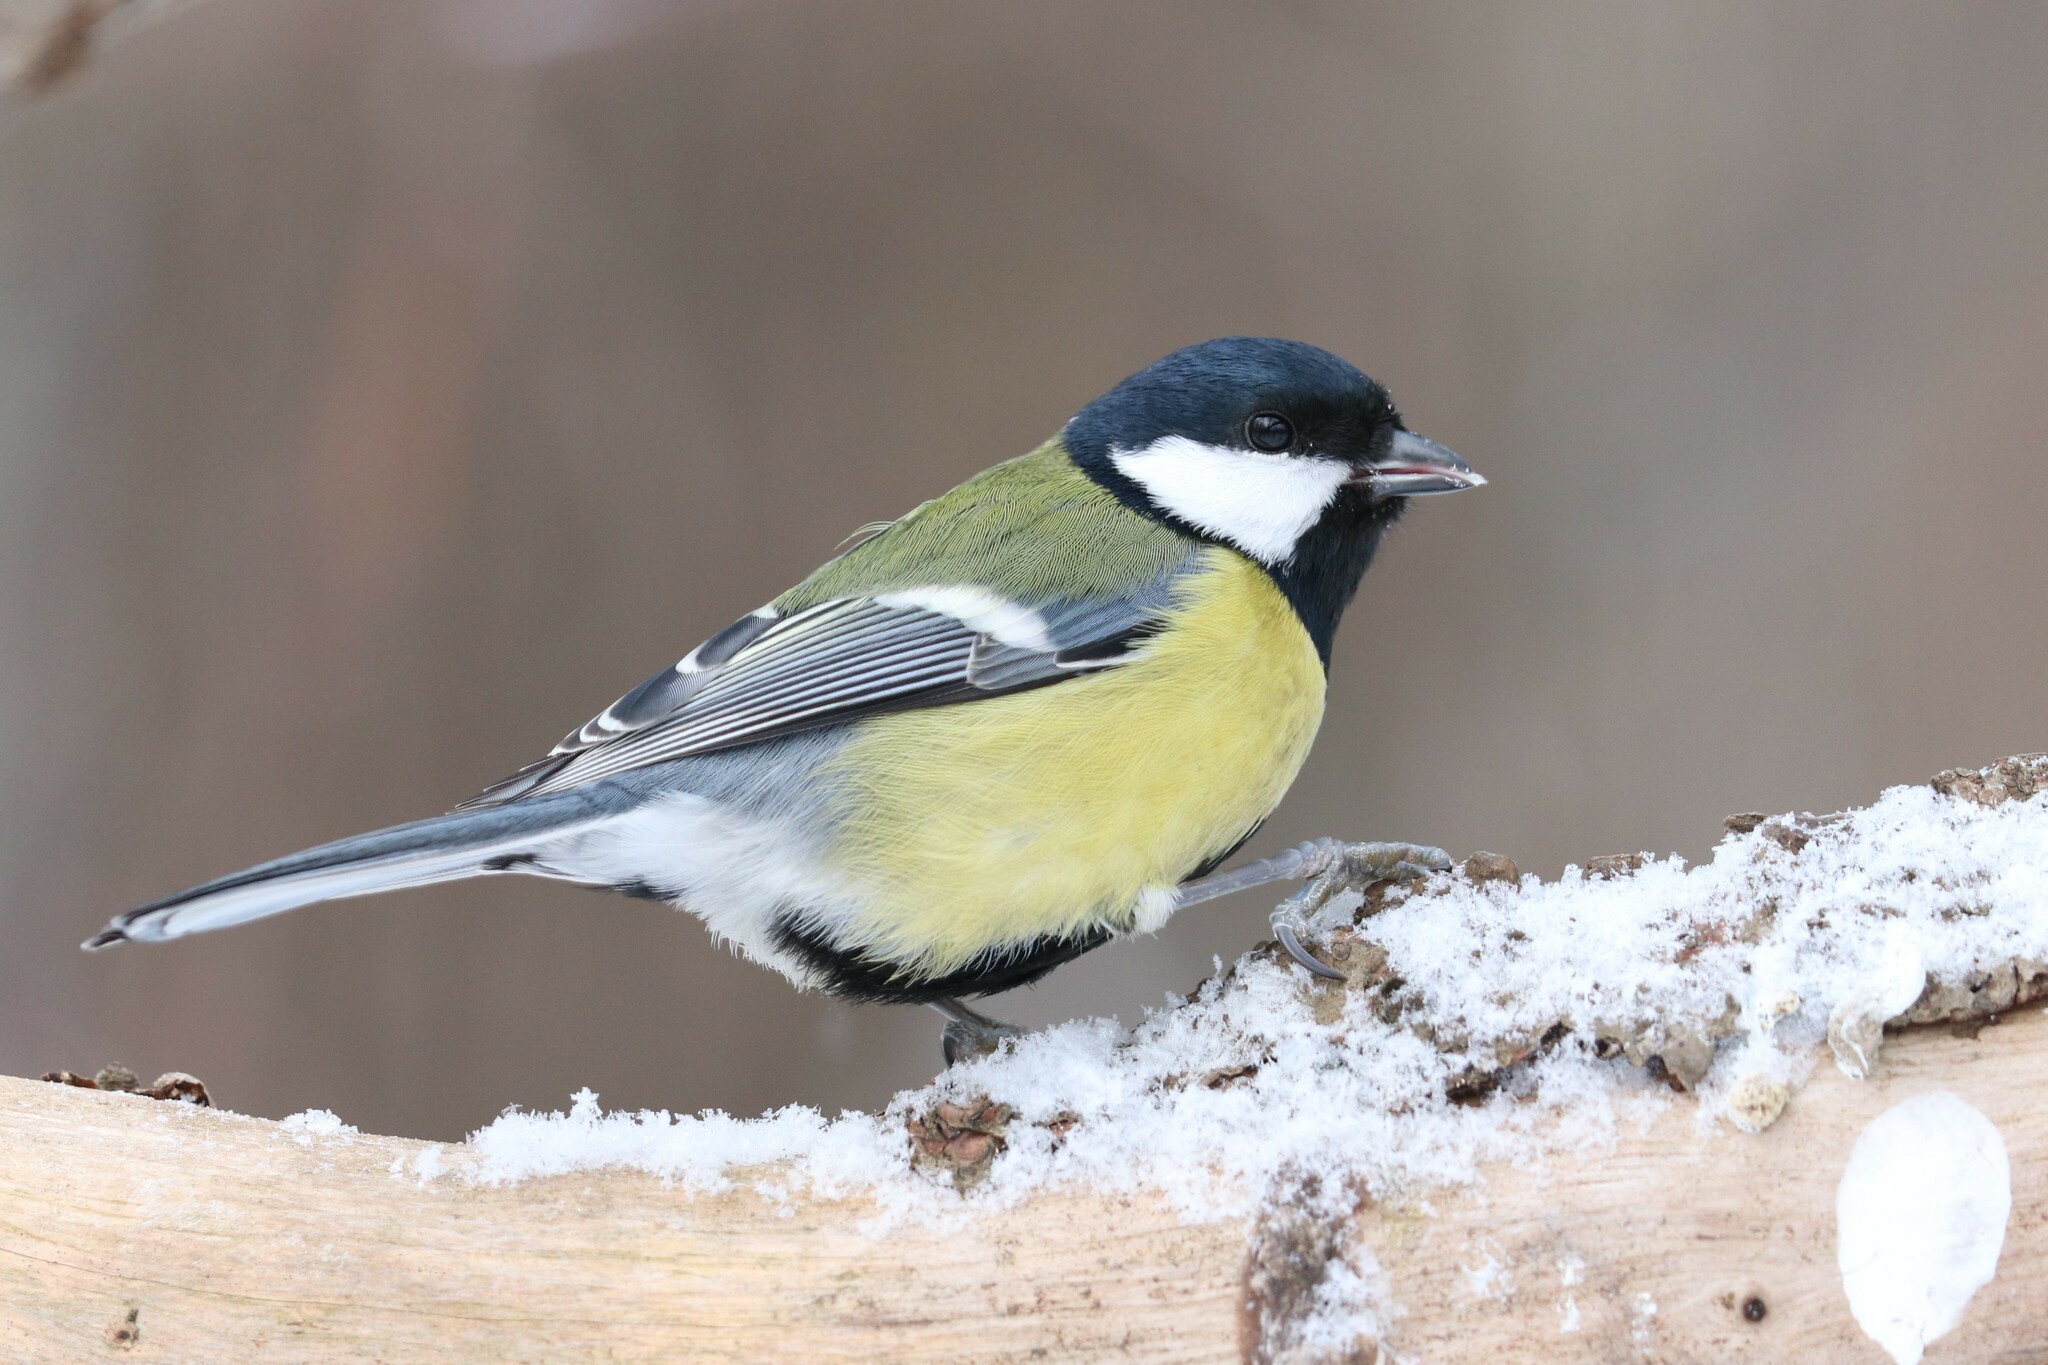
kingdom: Animalia
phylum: Chordata
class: Aves
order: Passeriformes
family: Paridae
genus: Parus
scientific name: Parus major
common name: Great tit
